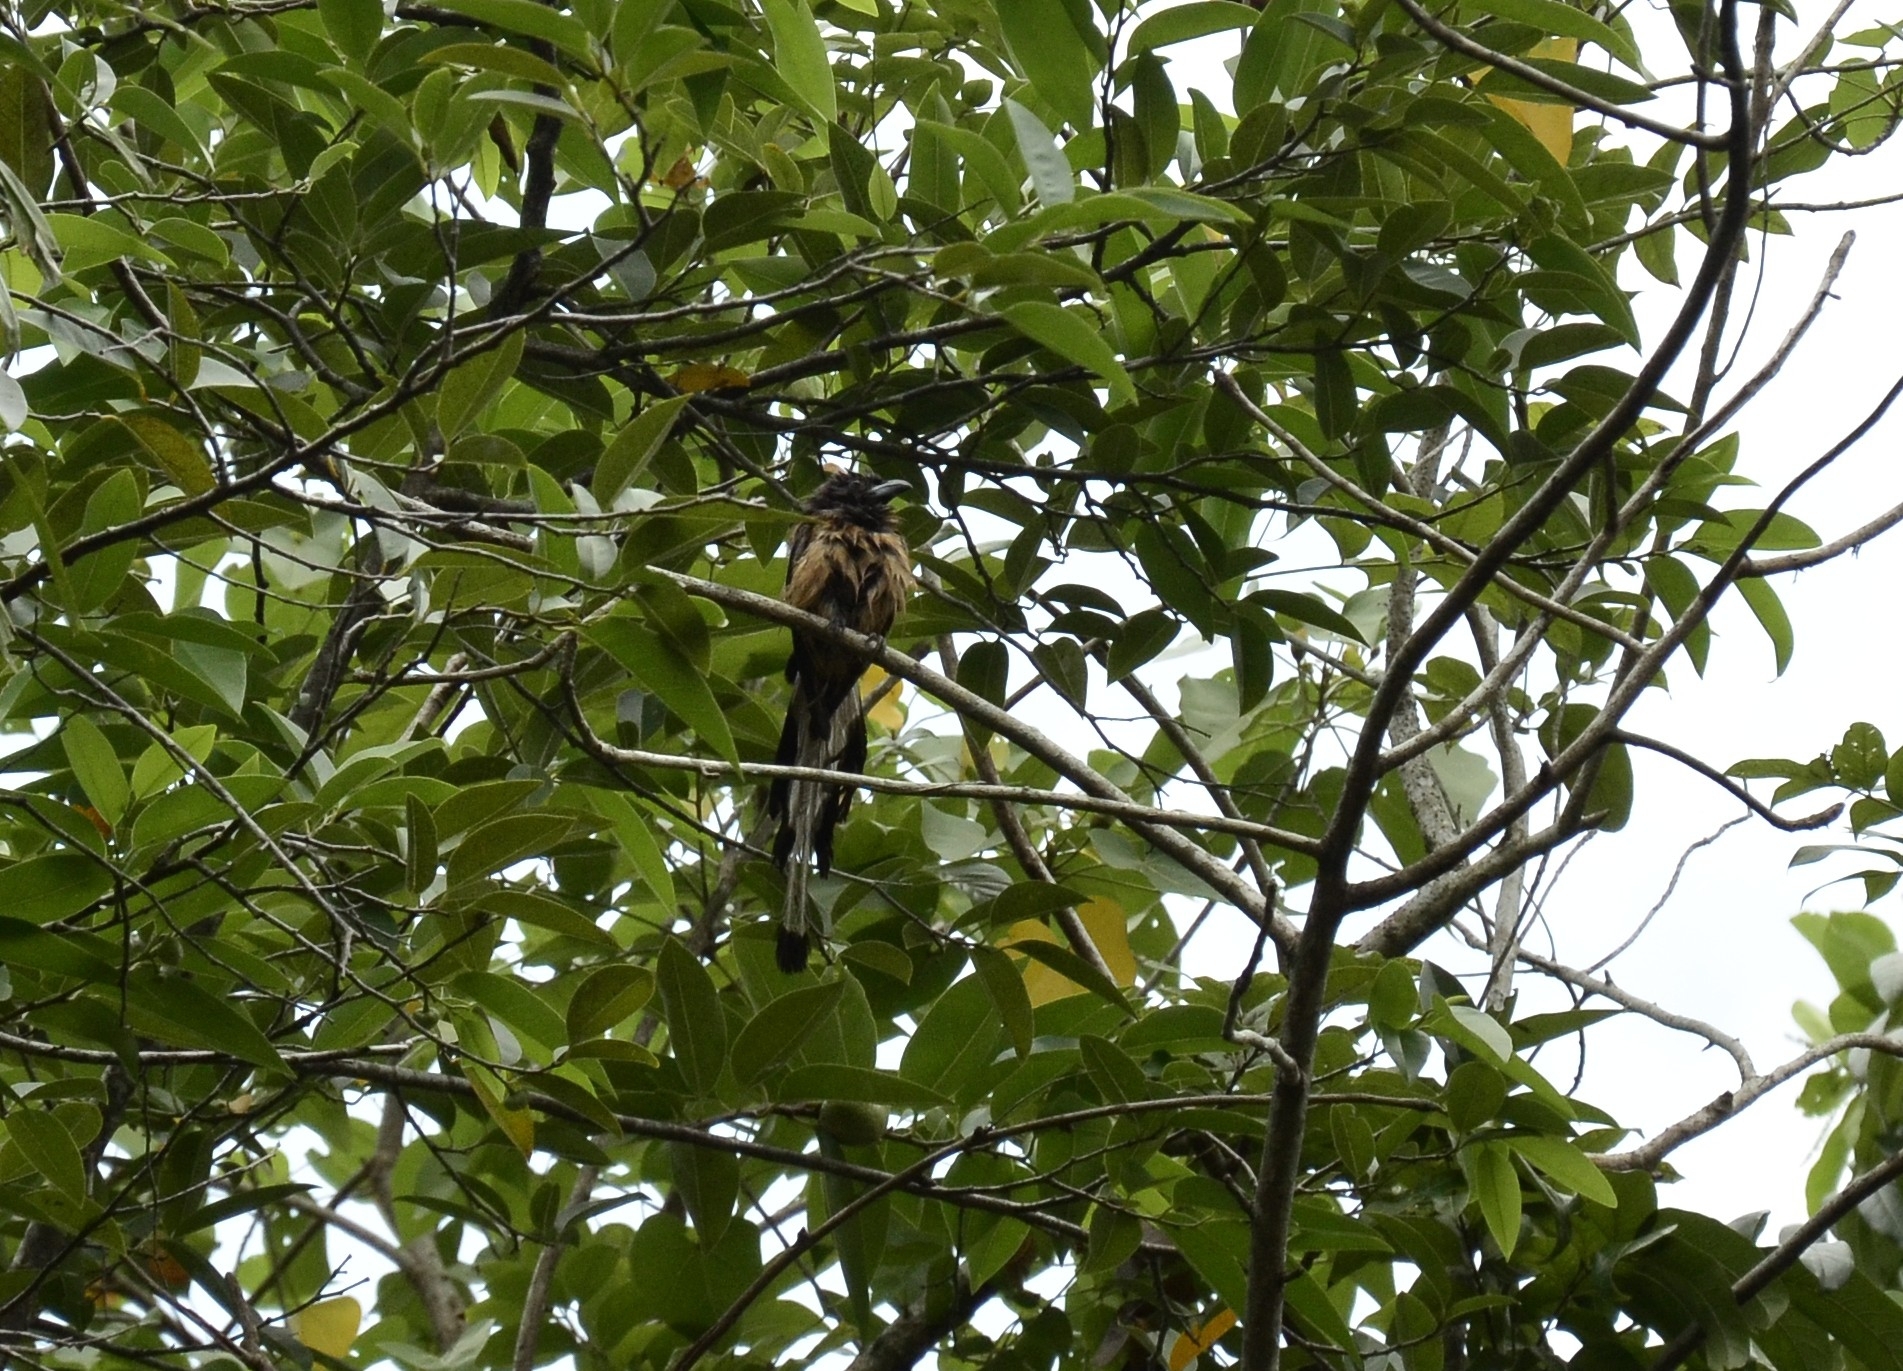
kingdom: Animalia
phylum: Chordata
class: Aves
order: Passeriformes
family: Corvidae
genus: Dendrocitta
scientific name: Dendrocitta vagabunda
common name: Rufous treepie
